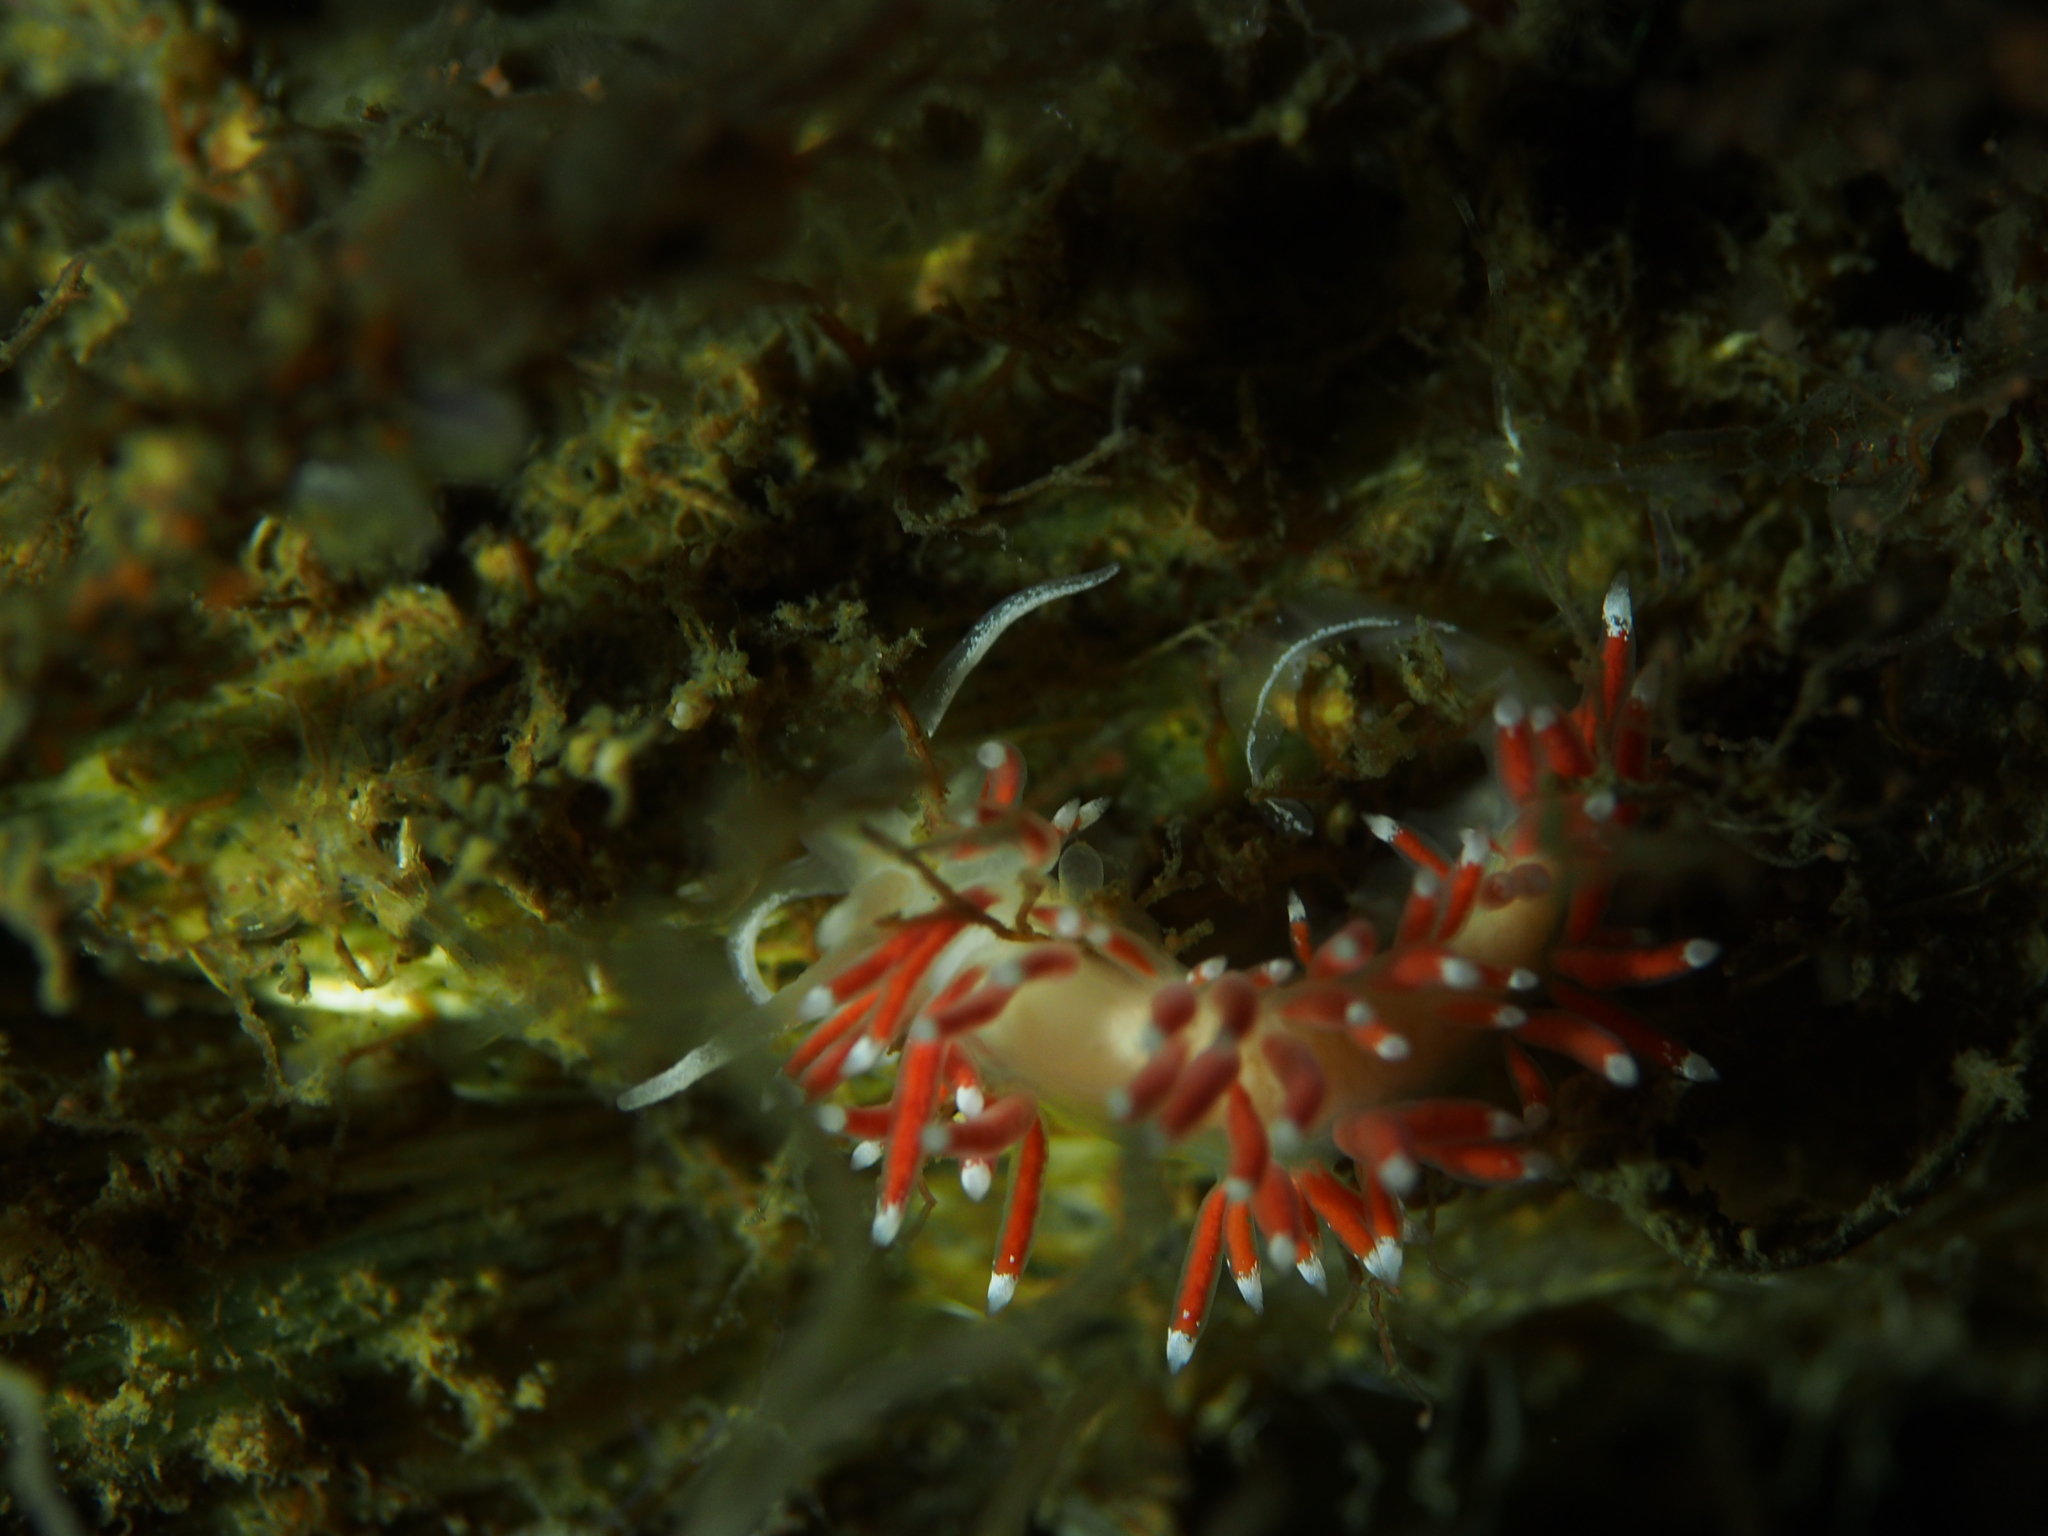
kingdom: Animalia
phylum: Mollusca
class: Gastropoda
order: Nudibranchia
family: Coryphellidae
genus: Coryphella
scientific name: Coryphella gracilis
